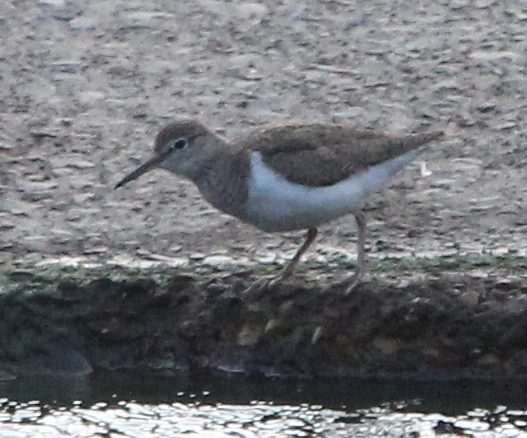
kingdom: Animalia
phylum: Chordata
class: Aves
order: Charadriiformes
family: Scolopacidae
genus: Actitis
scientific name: Actitis hypoleucos
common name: Common sandpiper
